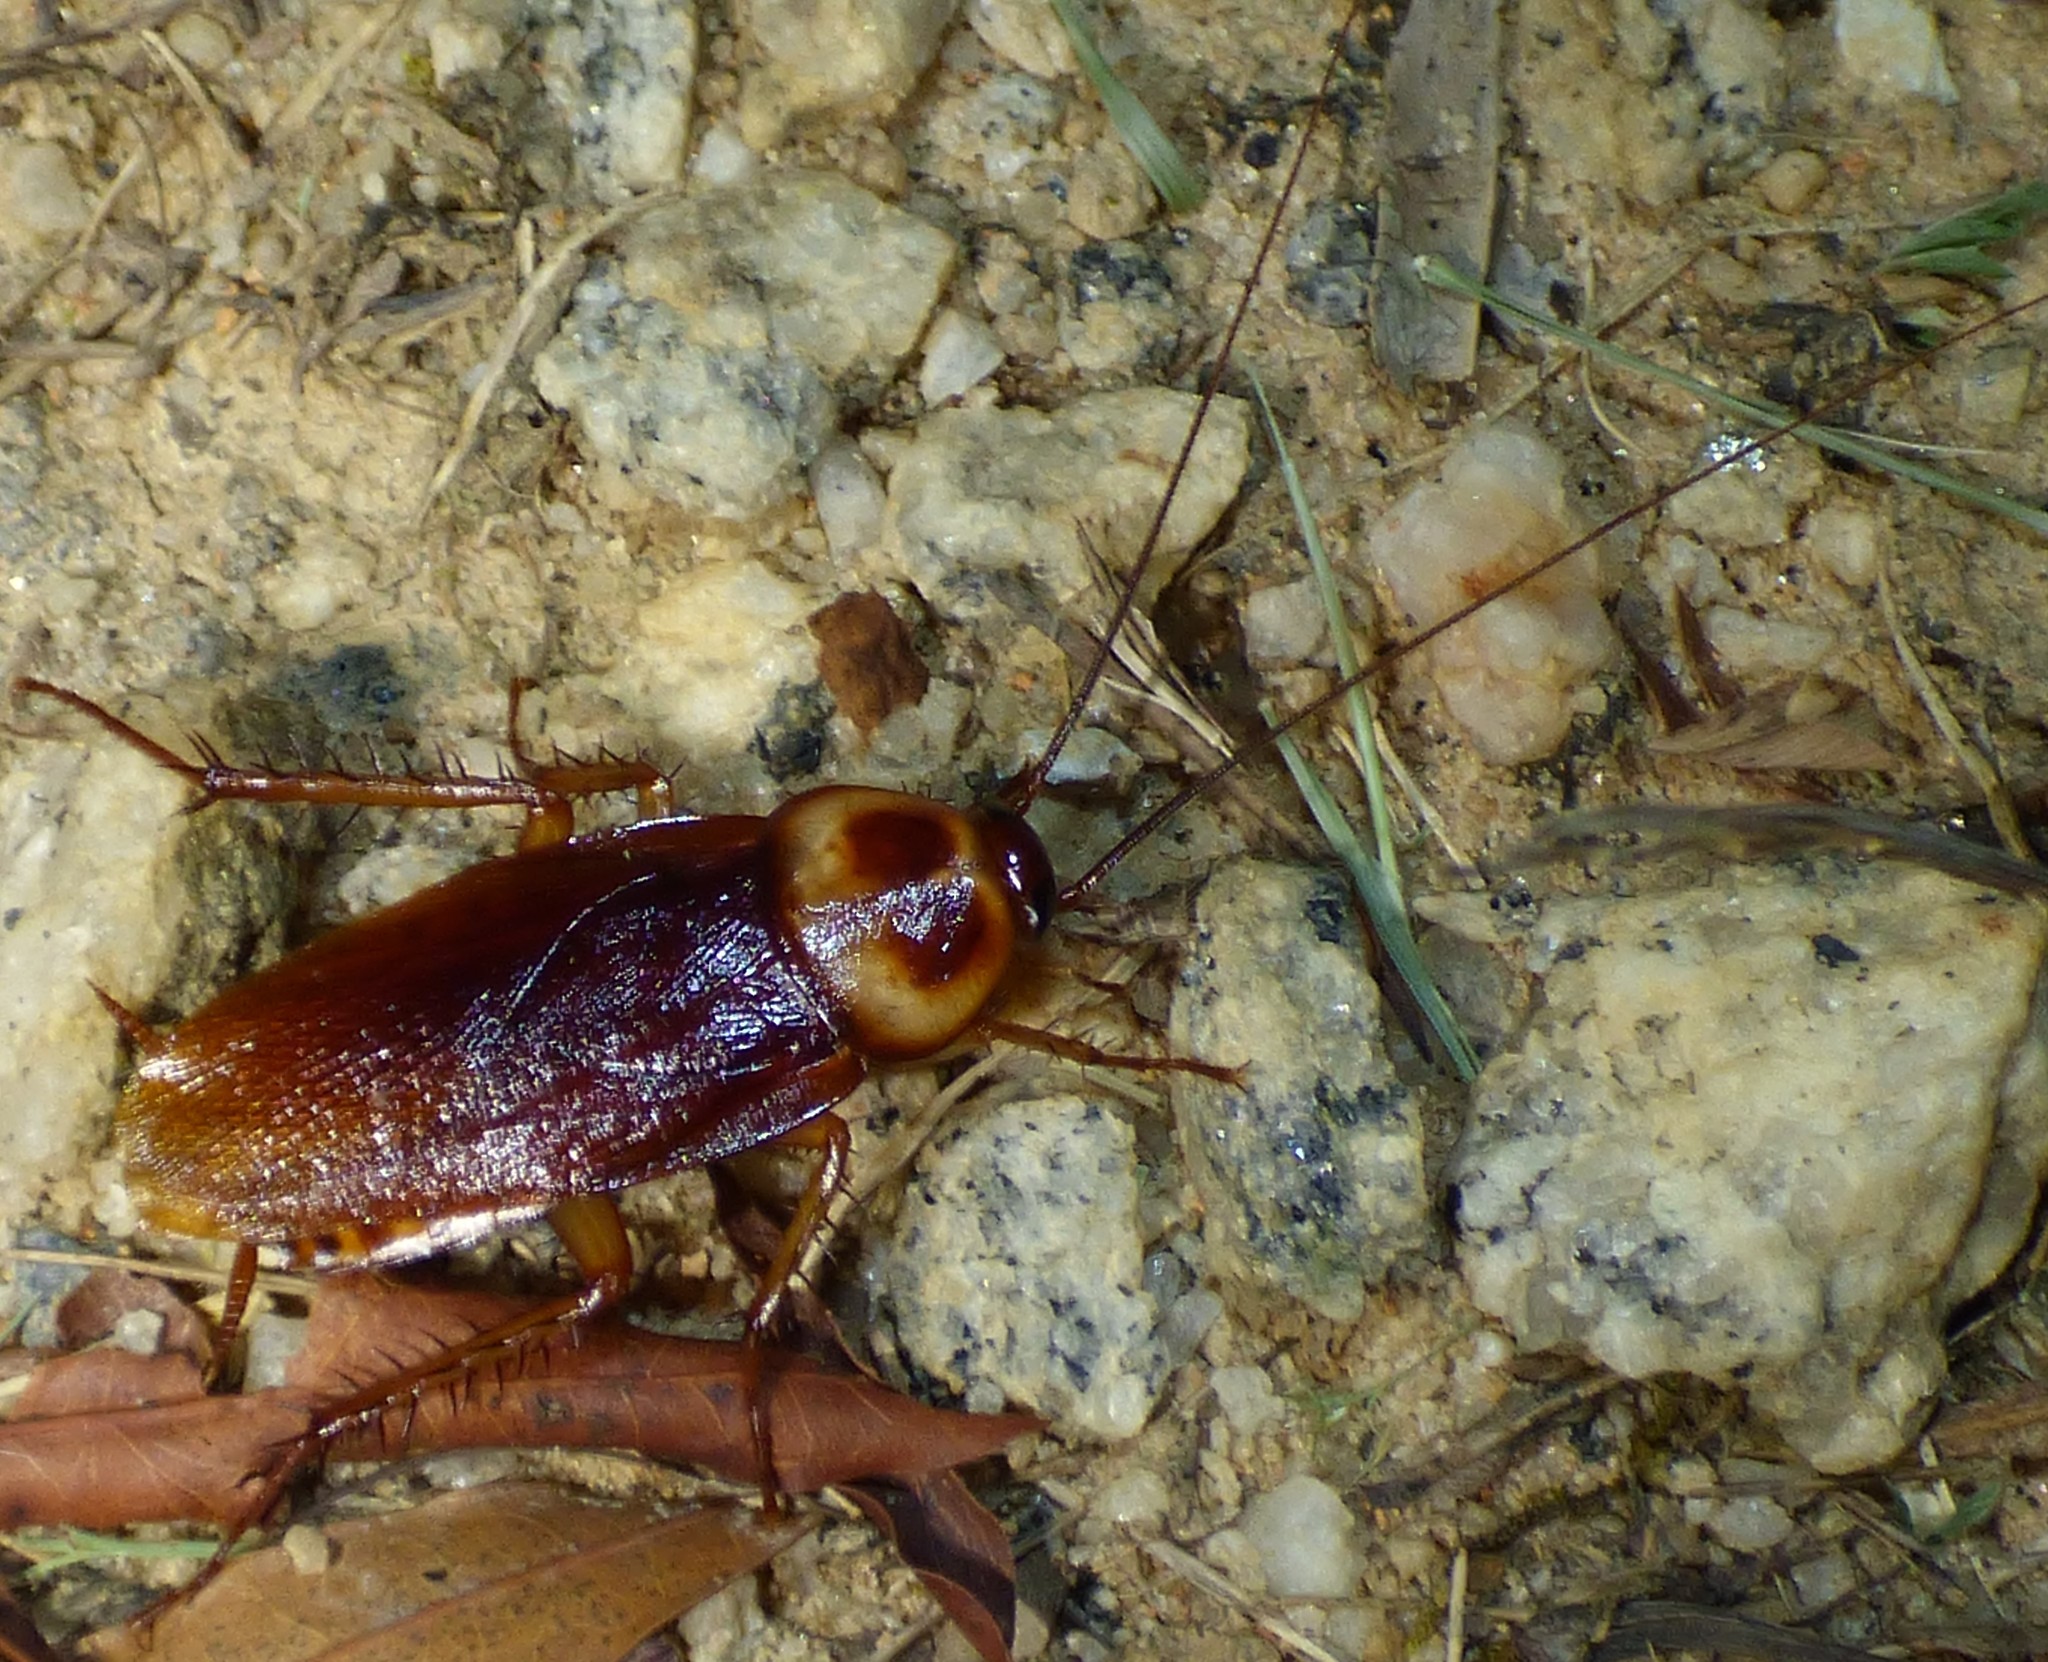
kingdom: Animalia
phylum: Arthropoda
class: Insecta
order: Blattodea
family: Blattidae
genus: Periplaneta
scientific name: Periplaneta americana
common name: American cockroach
